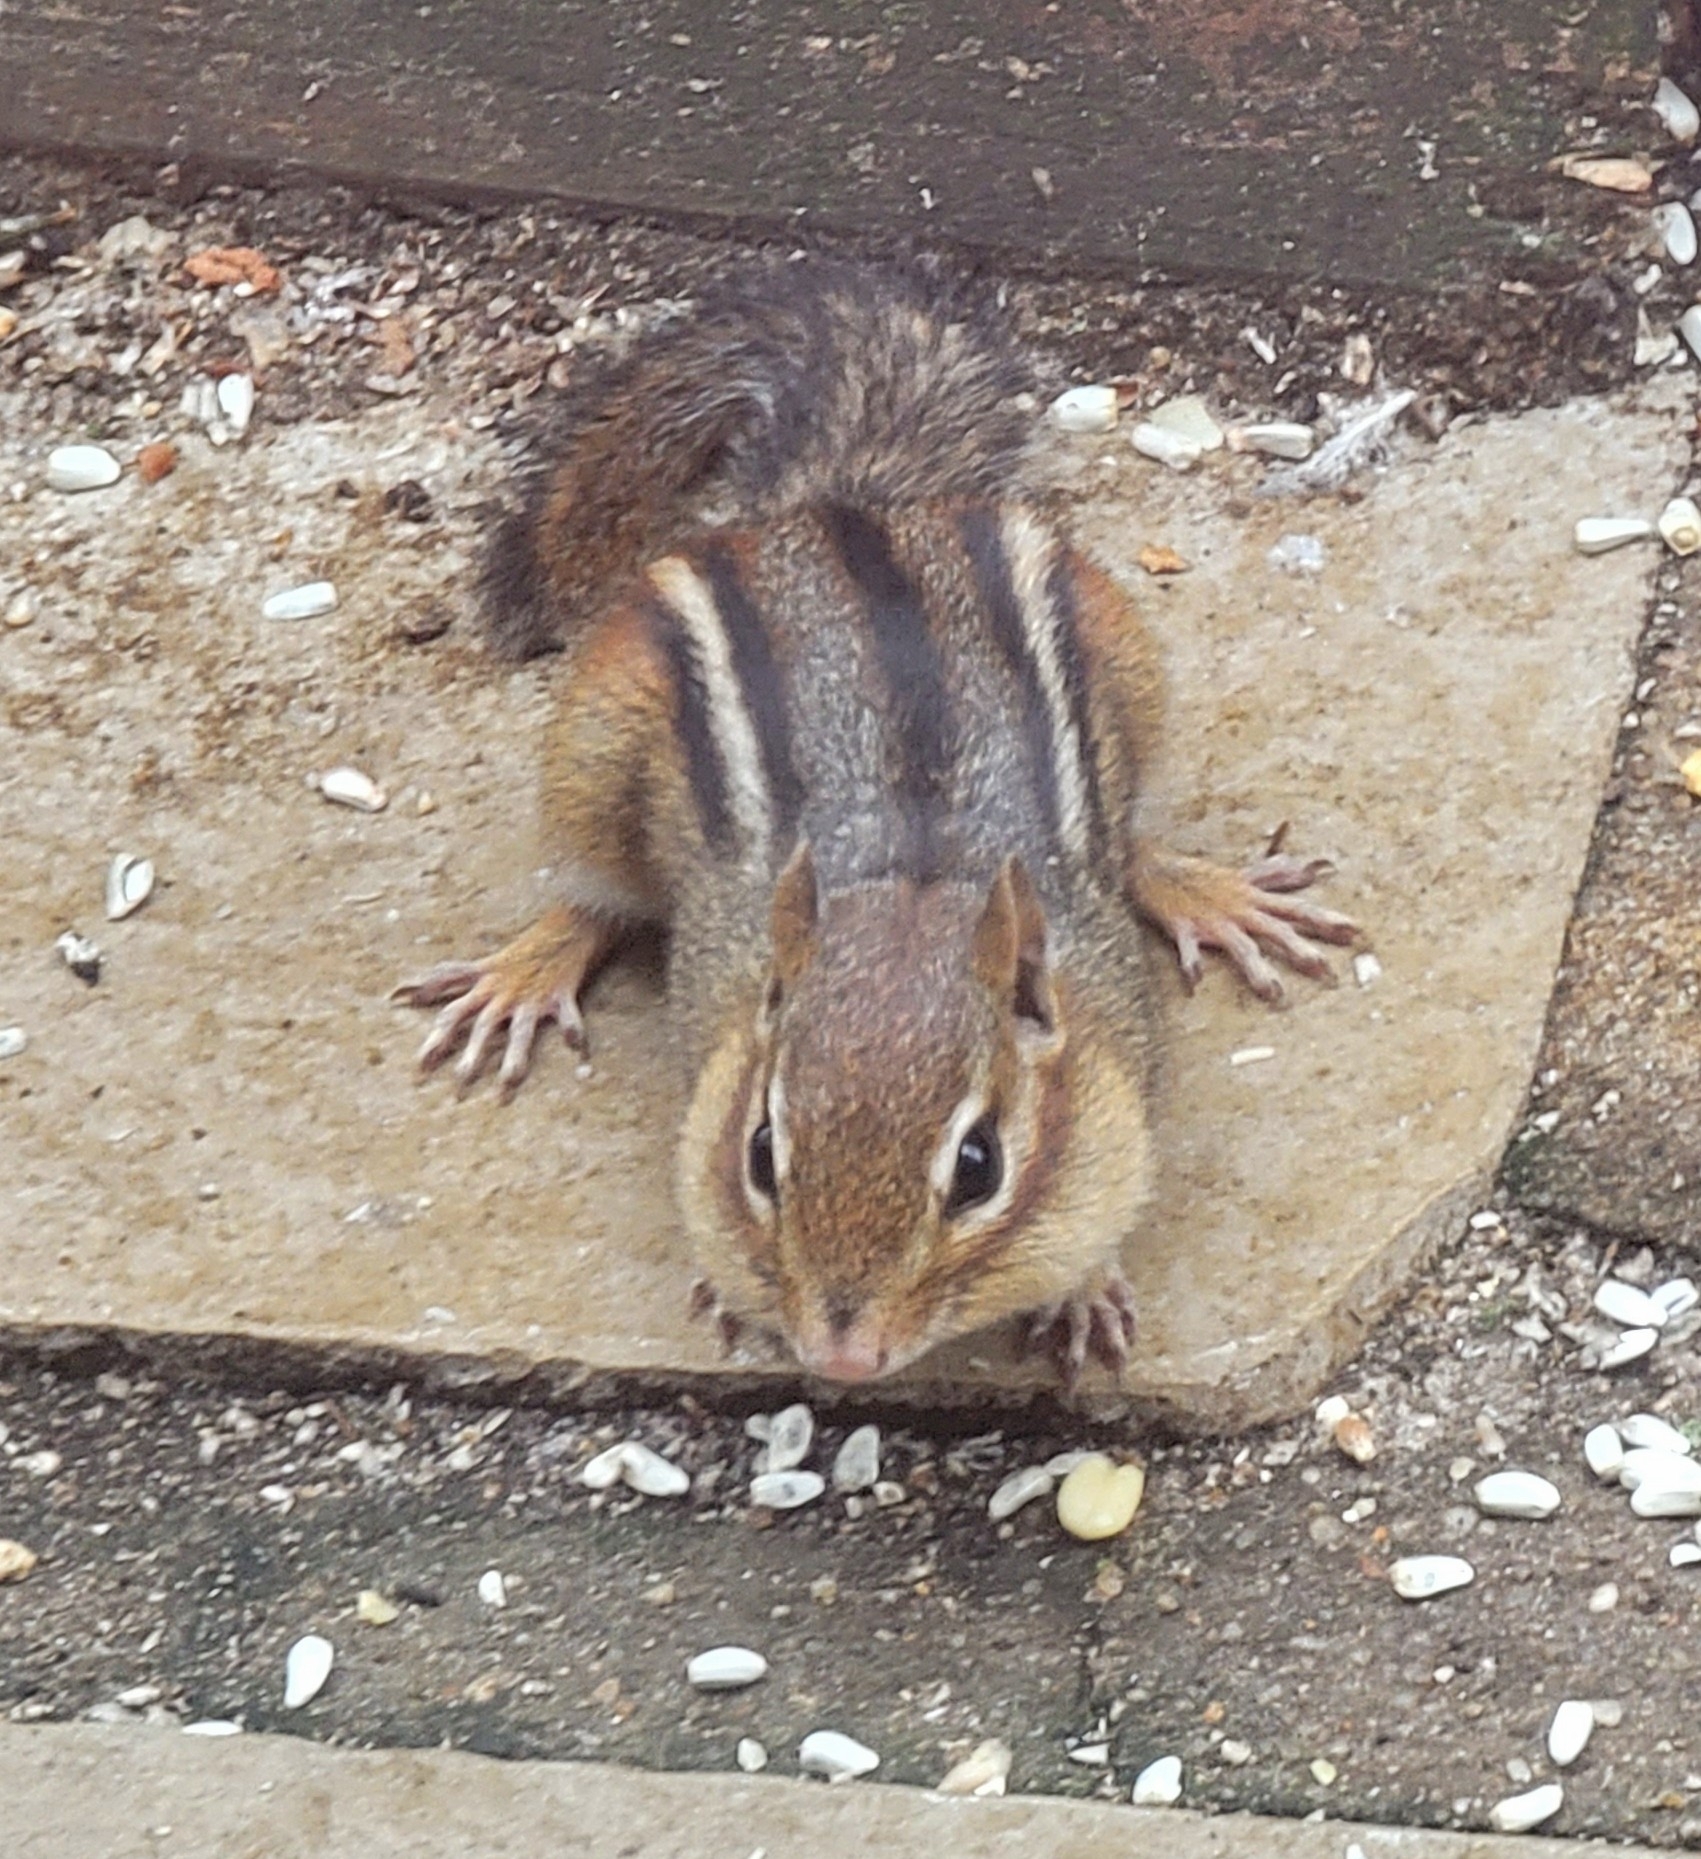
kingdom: Animalia
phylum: Chordata
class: Mammalia
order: Rodentia
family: Sciuridae
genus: Tamias
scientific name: Tamias striatus
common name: Eastern chipmunk
